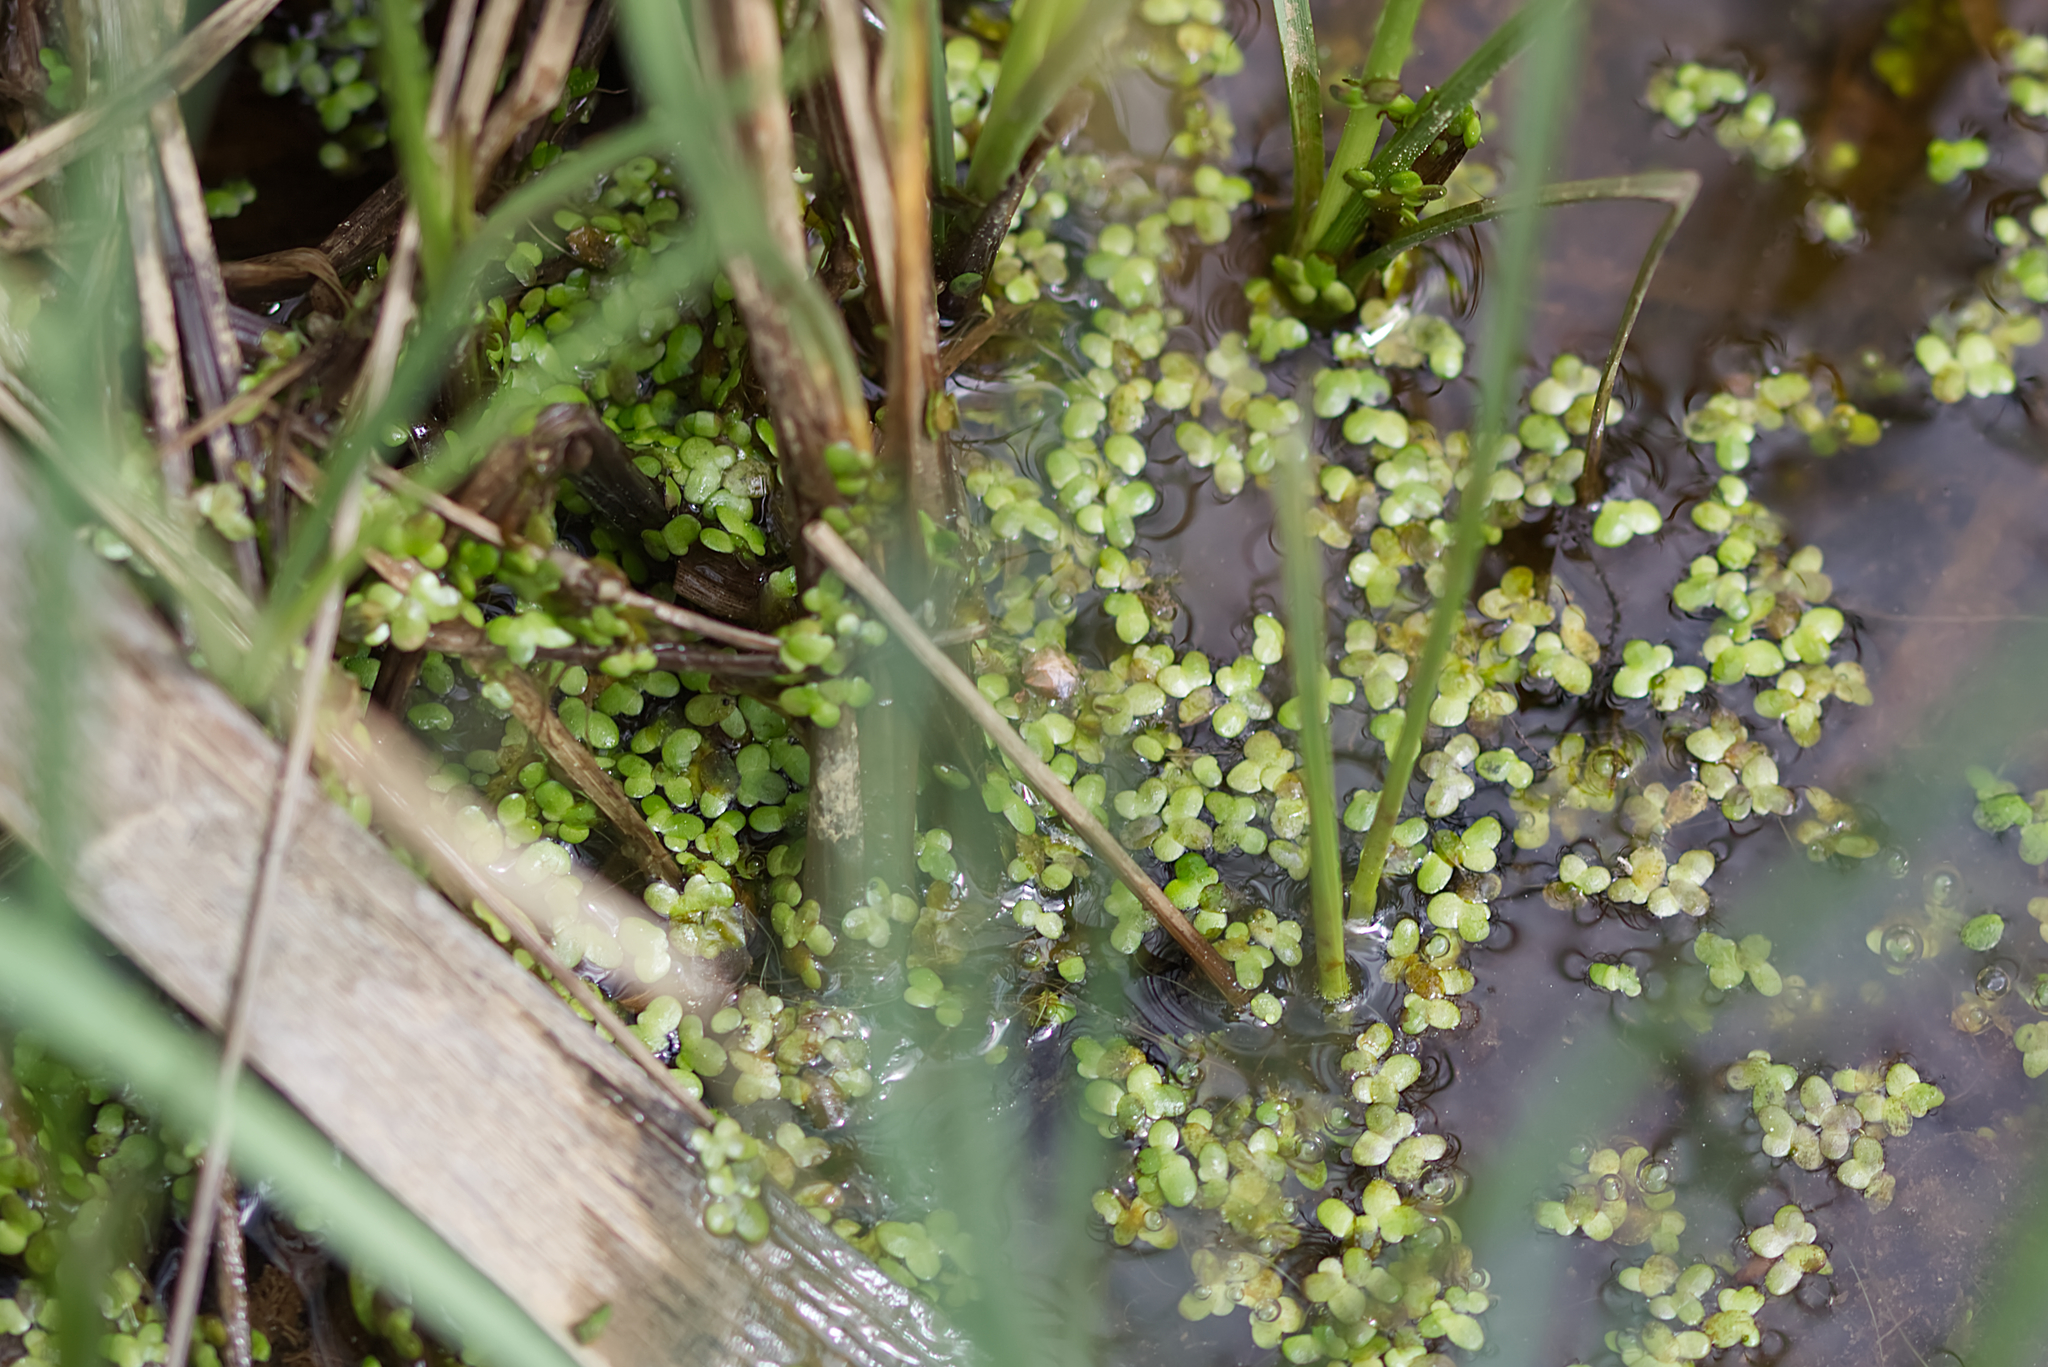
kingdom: Plantae
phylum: Tracheophyta
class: Liliopsida
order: Alismatales
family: Araceae
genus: Lemna
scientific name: Lemna minor
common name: Common duckweed
